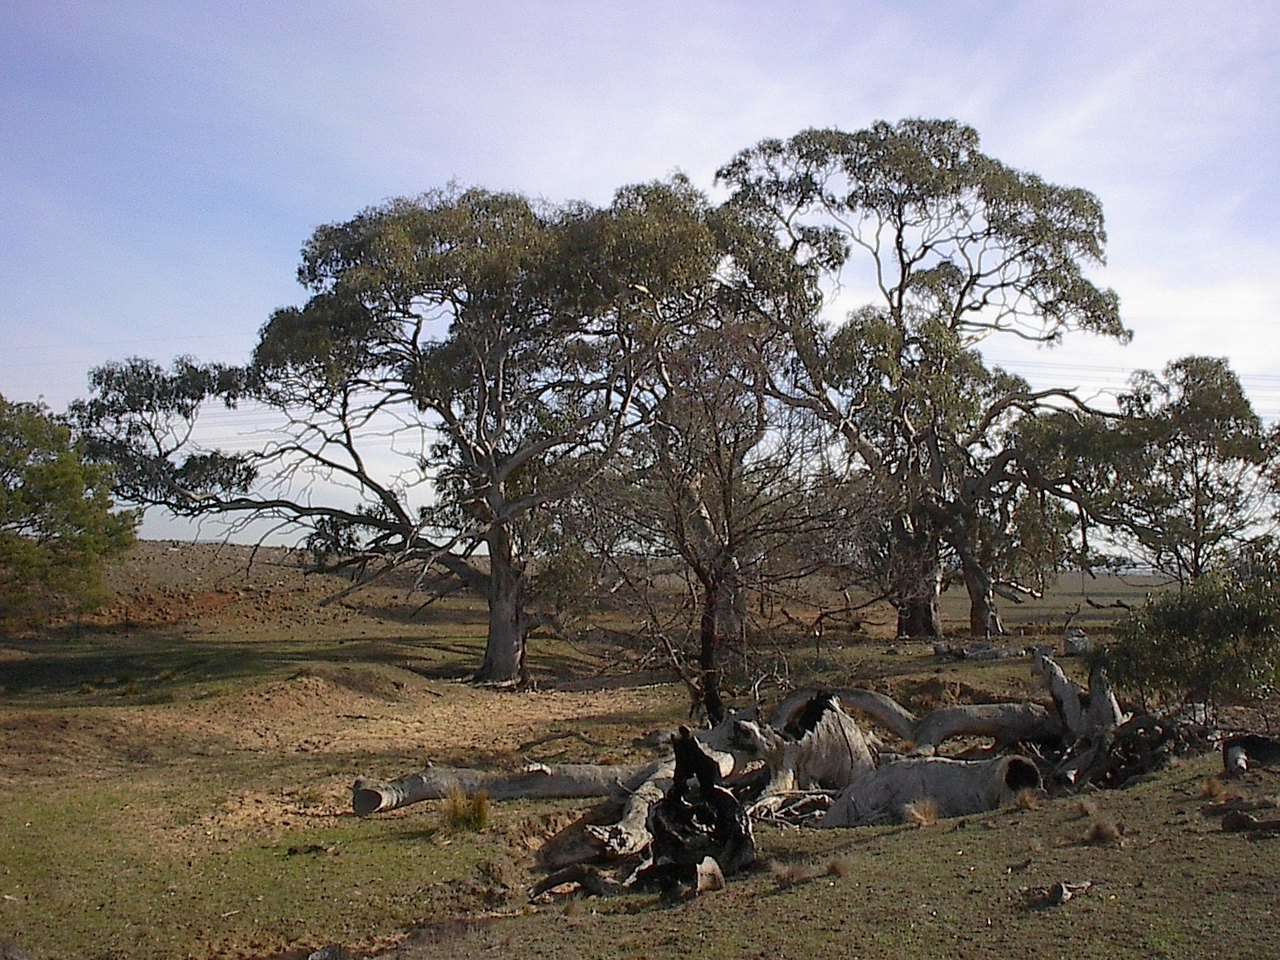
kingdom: Plantae
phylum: Tracheophyta
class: Magnoliopsida
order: Myrtales
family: Myrtaceae
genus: Eucalyptus
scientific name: Eucalyptus camaldulensis
